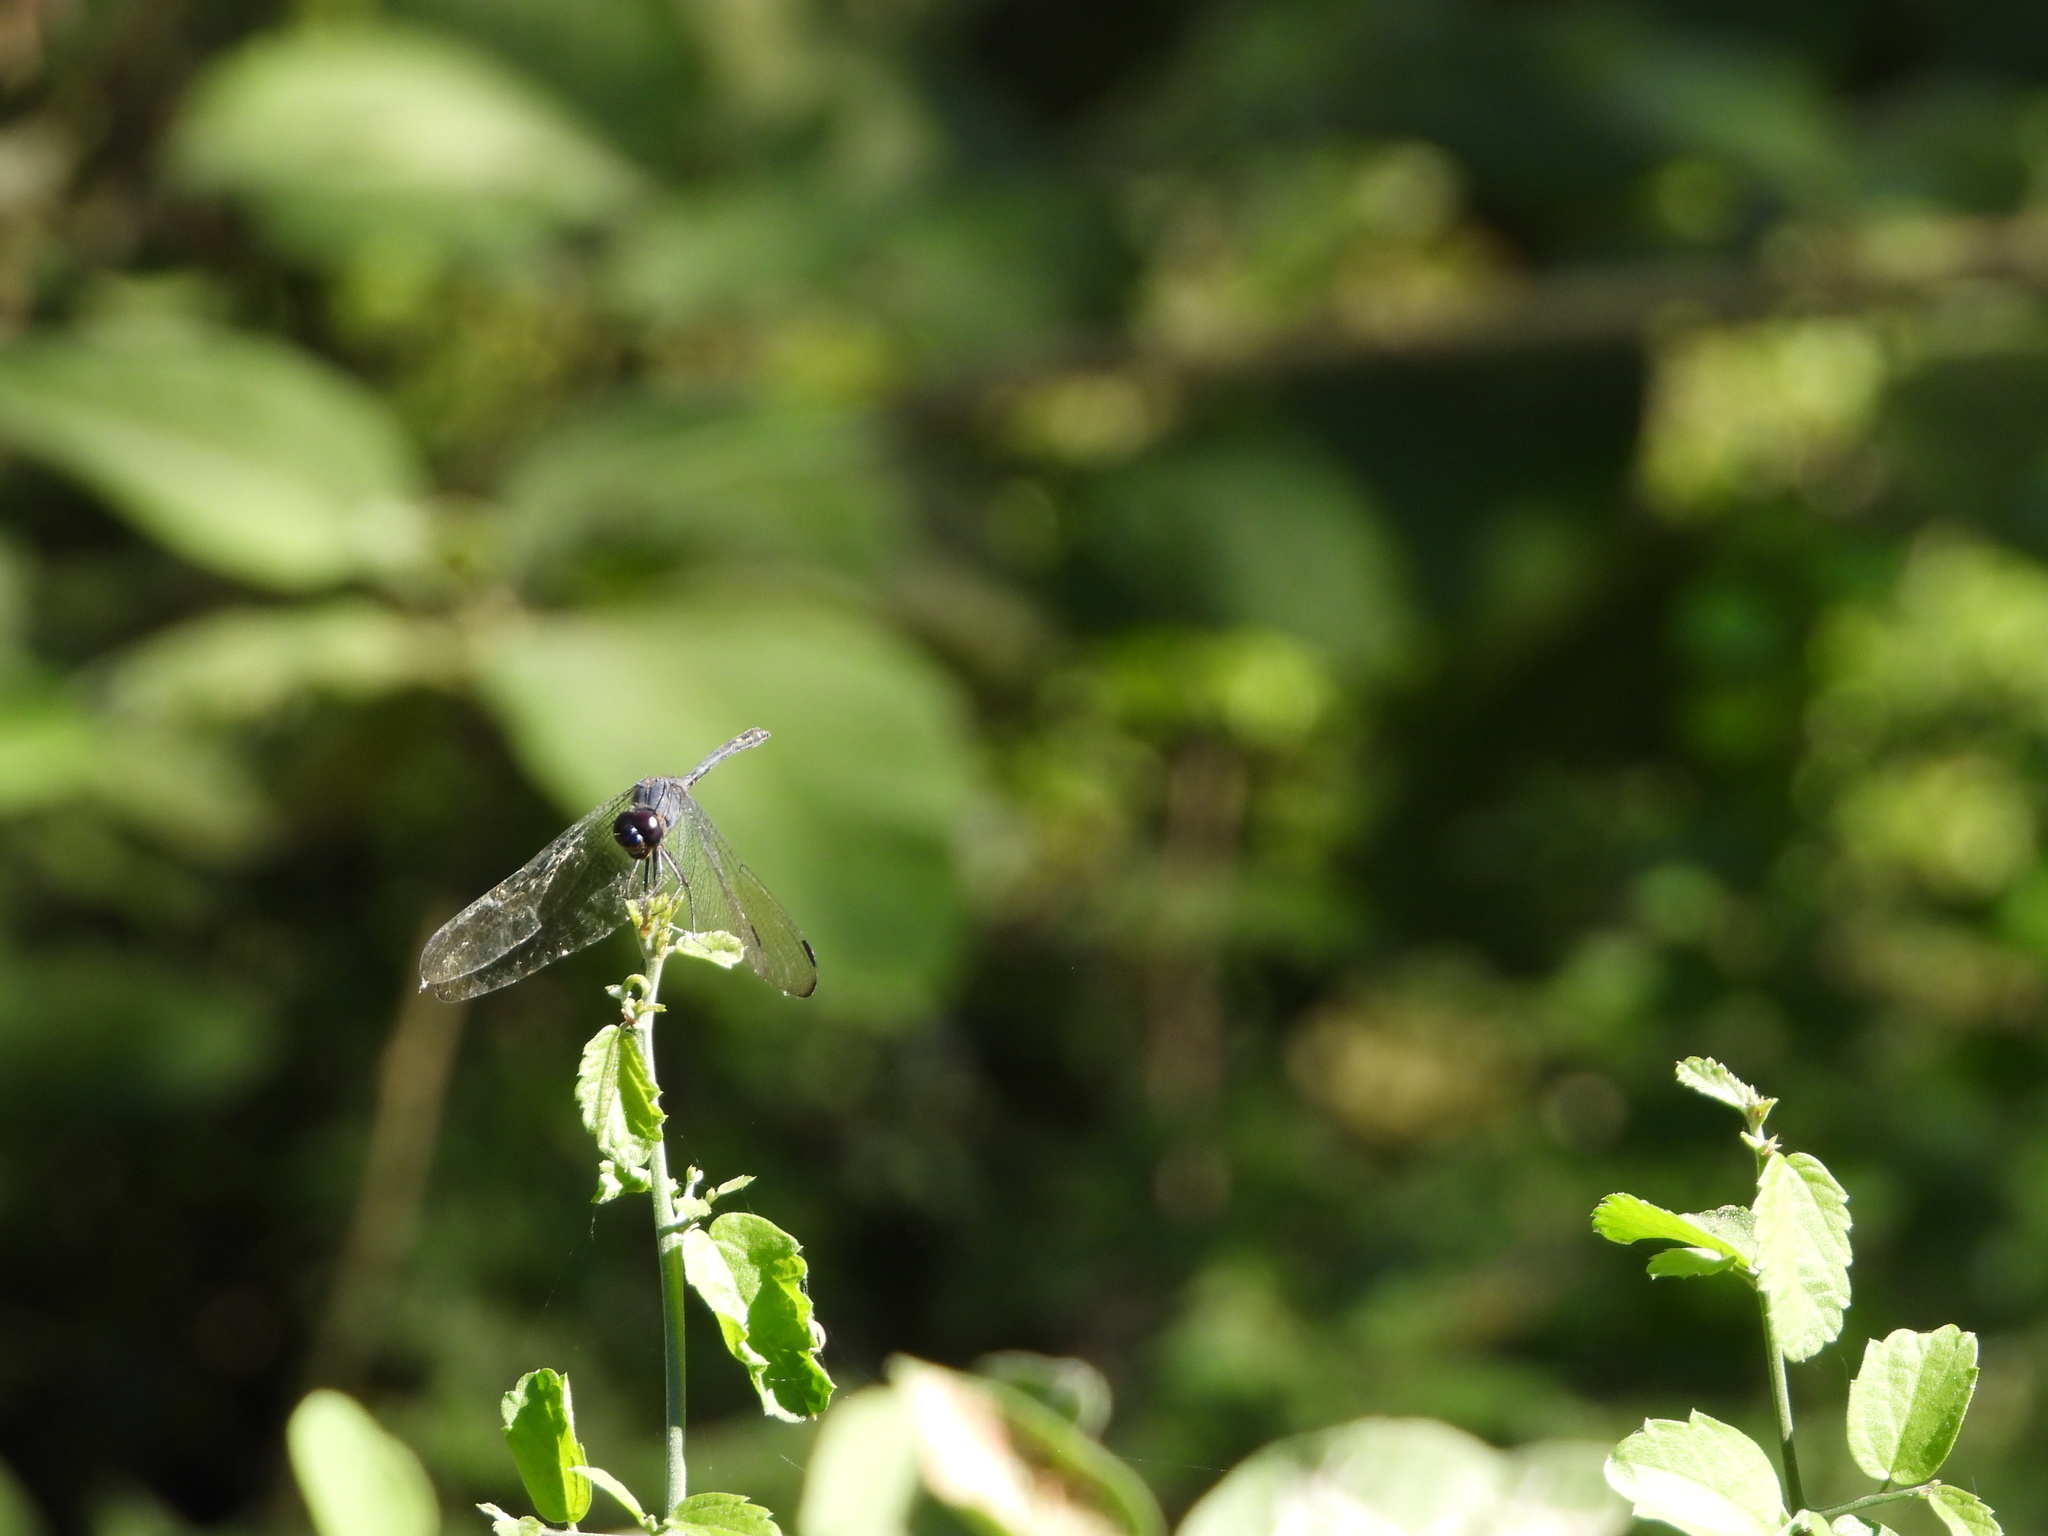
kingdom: Animalia
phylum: Arthropoda
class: Insecta
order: Odonata
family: Libellulidae
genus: Dythemis
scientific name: Dythemis nigrescens
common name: Black setwing
